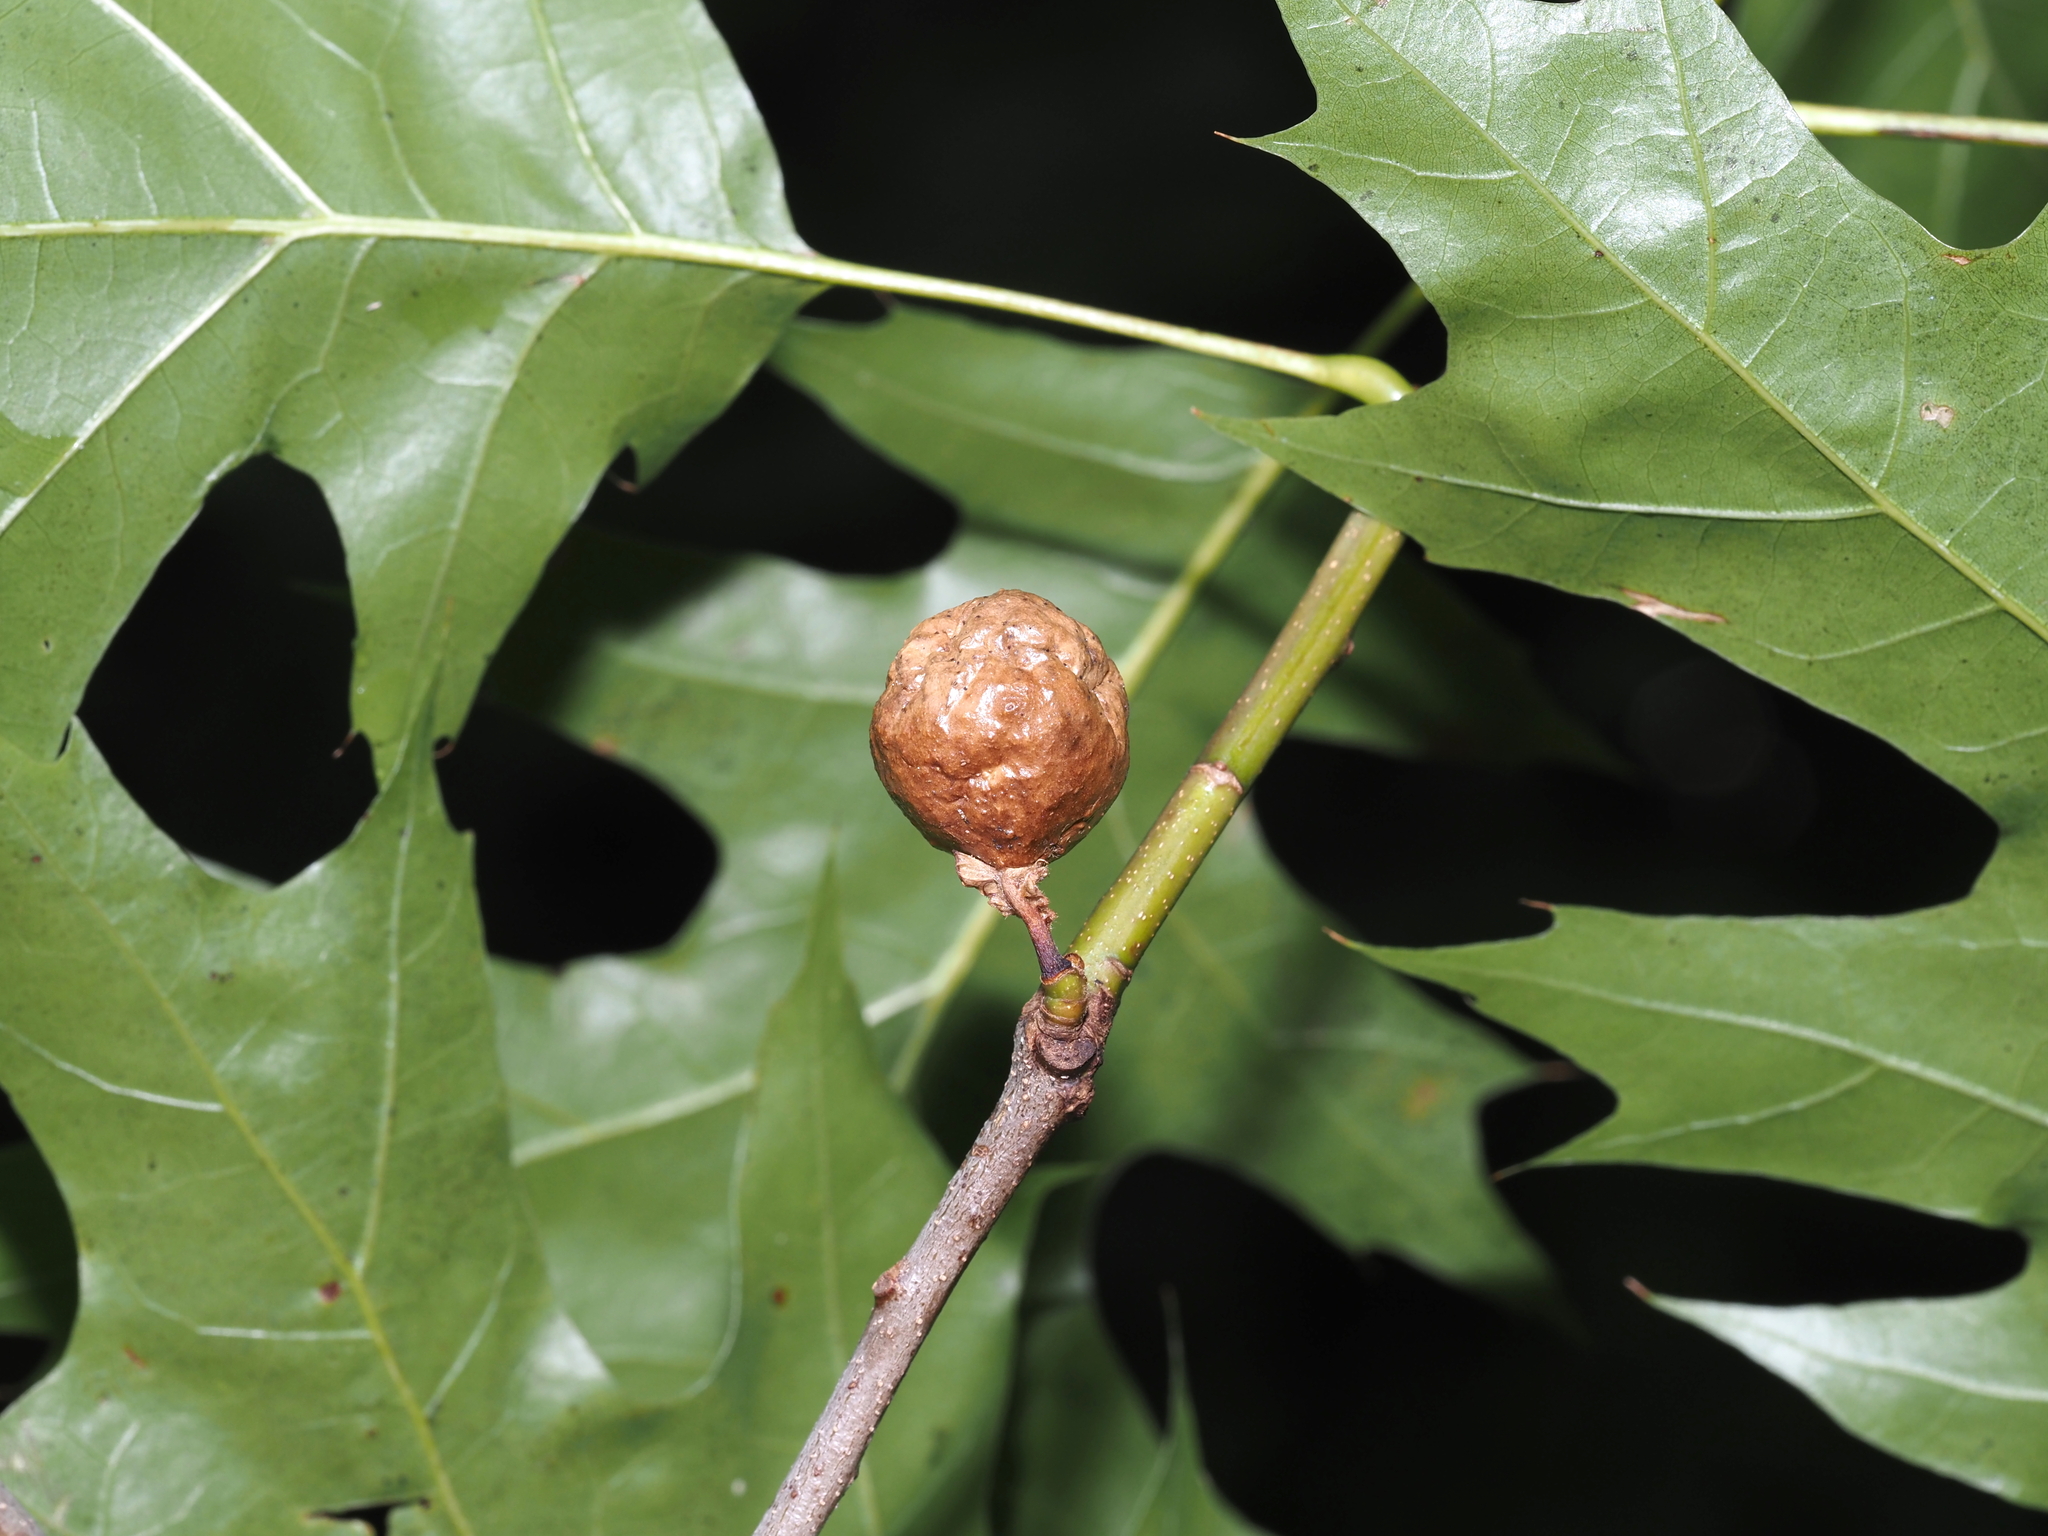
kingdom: Animalia
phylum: Arthropoda
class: Insecta
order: Hymenoptera
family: Cynipidae
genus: Amphibolips
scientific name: Amphibolips
